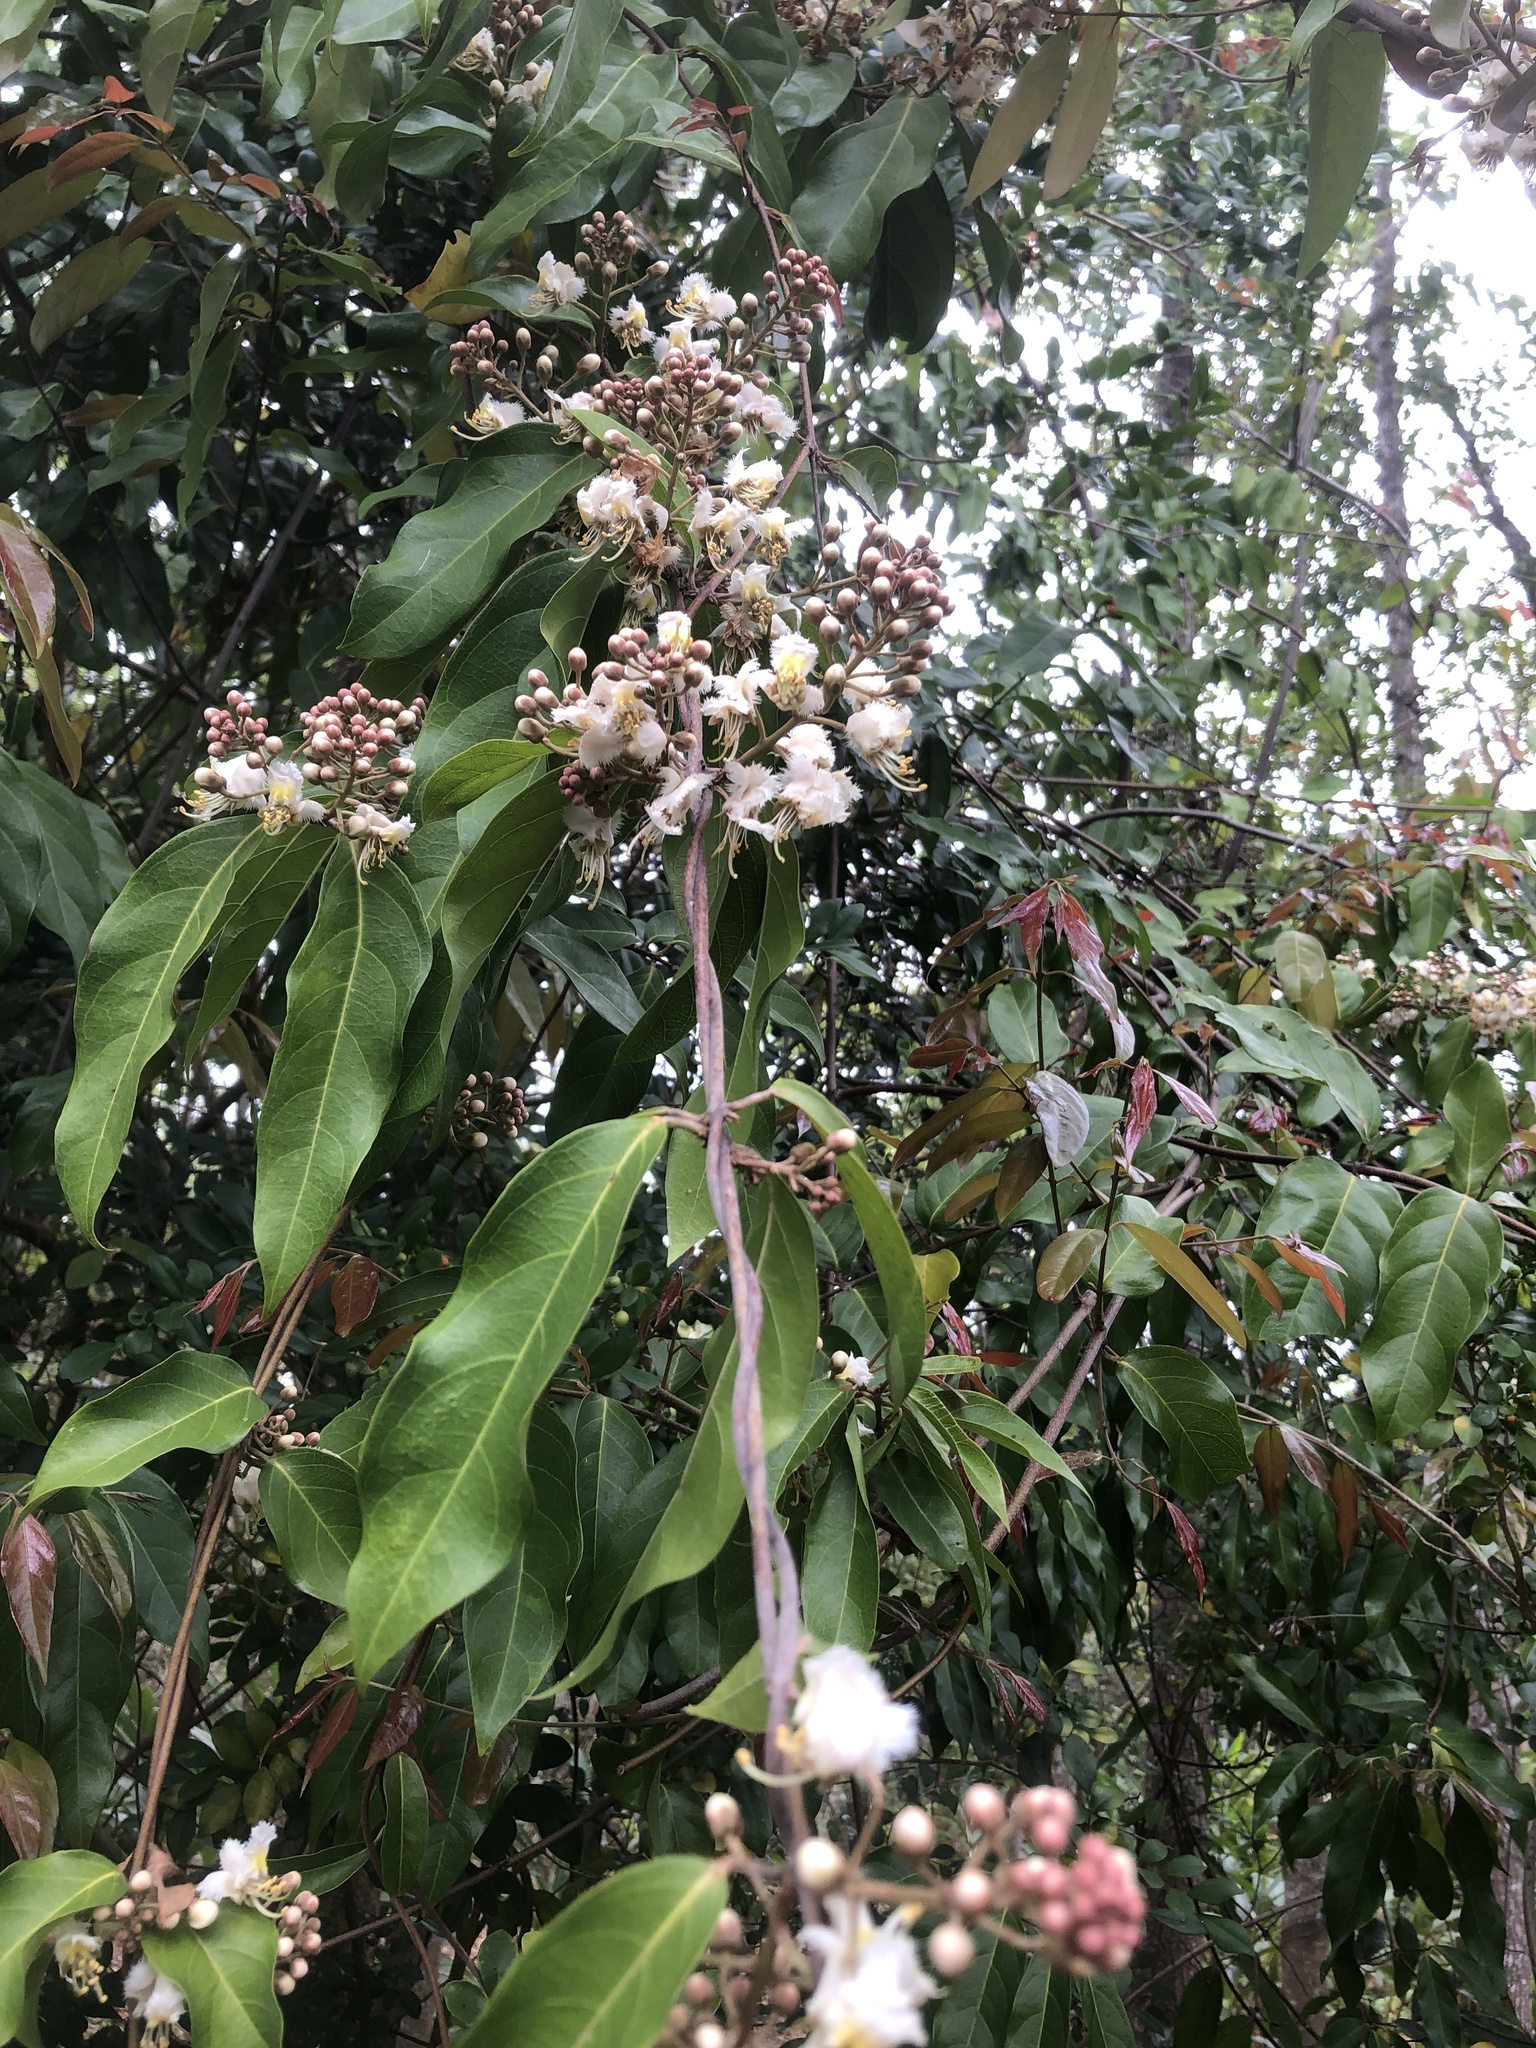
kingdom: Plantae
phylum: Tracheophyta
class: Magnoliopsida
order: Malpighiales
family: Malpighiaceae
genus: Hiptage
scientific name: Hiptage benghalensis
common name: Hiptage
